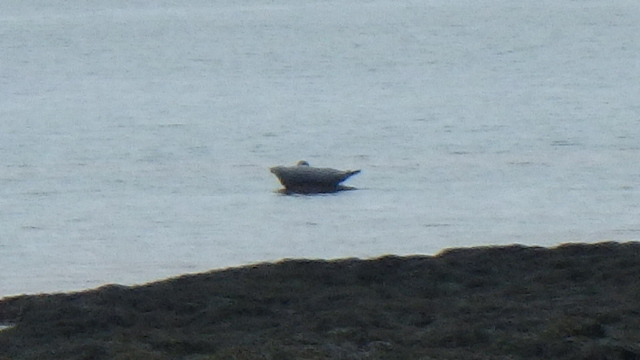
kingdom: Animalia
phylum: Chordata
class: Mammalia
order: Carnivora
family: Phocidae
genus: Halichoerus
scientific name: Halichoerus grypus
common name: Grey seal
